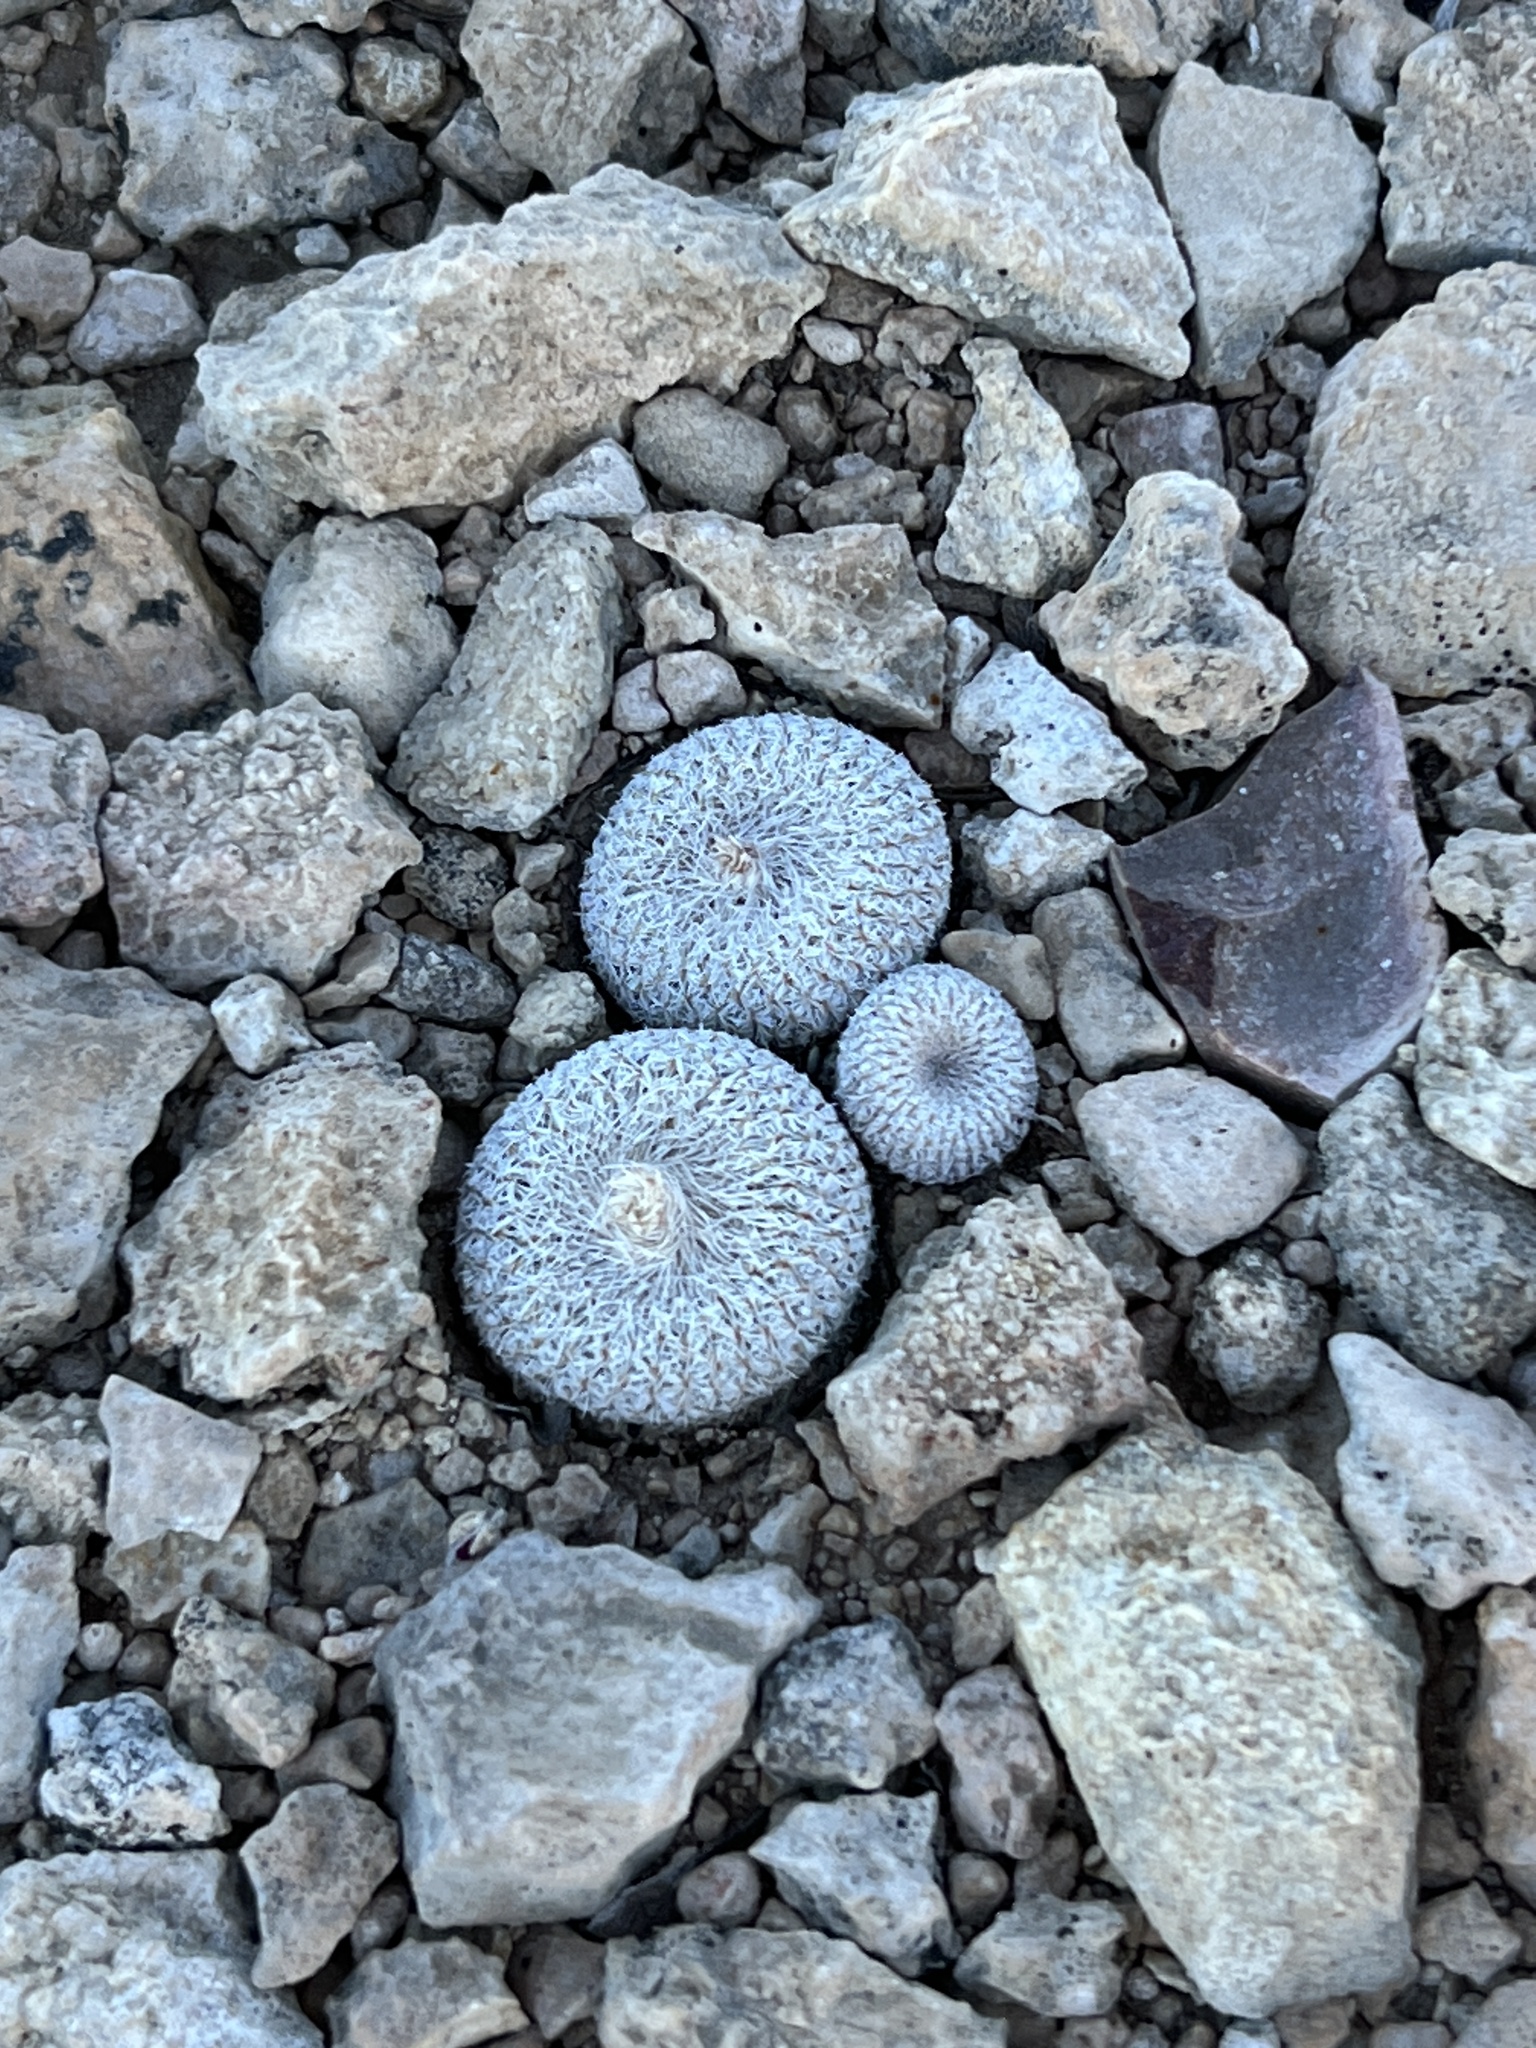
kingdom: Plantae
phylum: Tracheophyta
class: Magnoliopsida
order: Caryophyllales
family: Cactaceae
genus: Epithelantha
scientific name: Epithelantha micromeris
